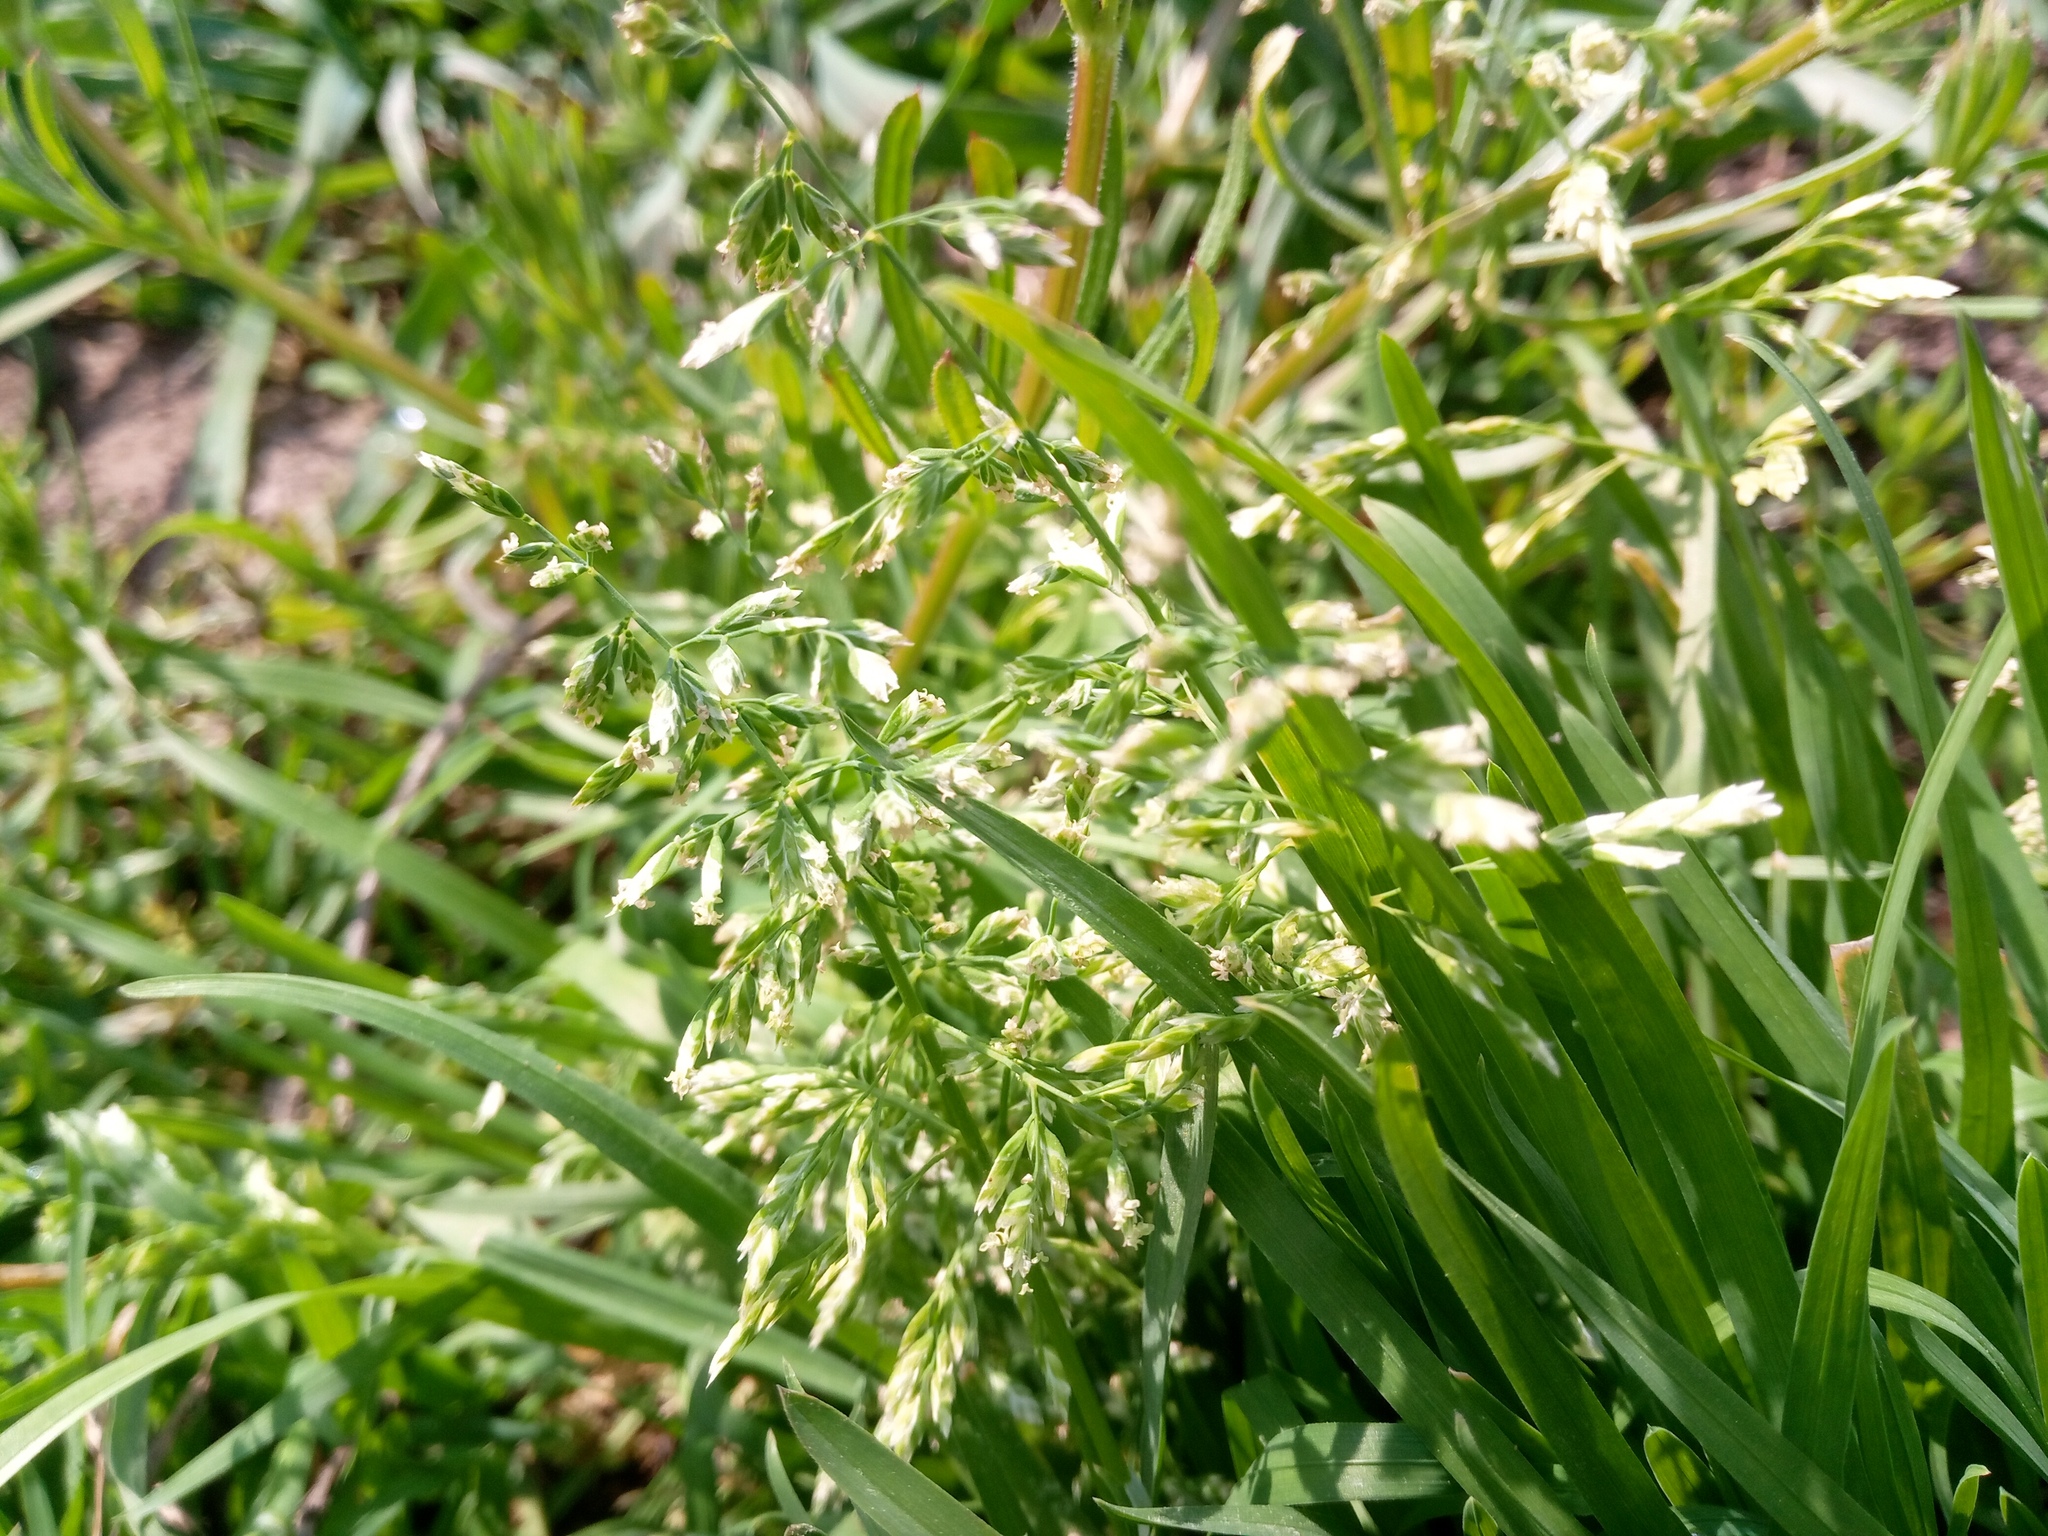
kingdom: Plantae
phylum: Tracheophyta
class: Liliopsida
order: Poales
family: Poaceae
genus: Poa
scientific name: Poa annua
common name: Annual bluegrass
